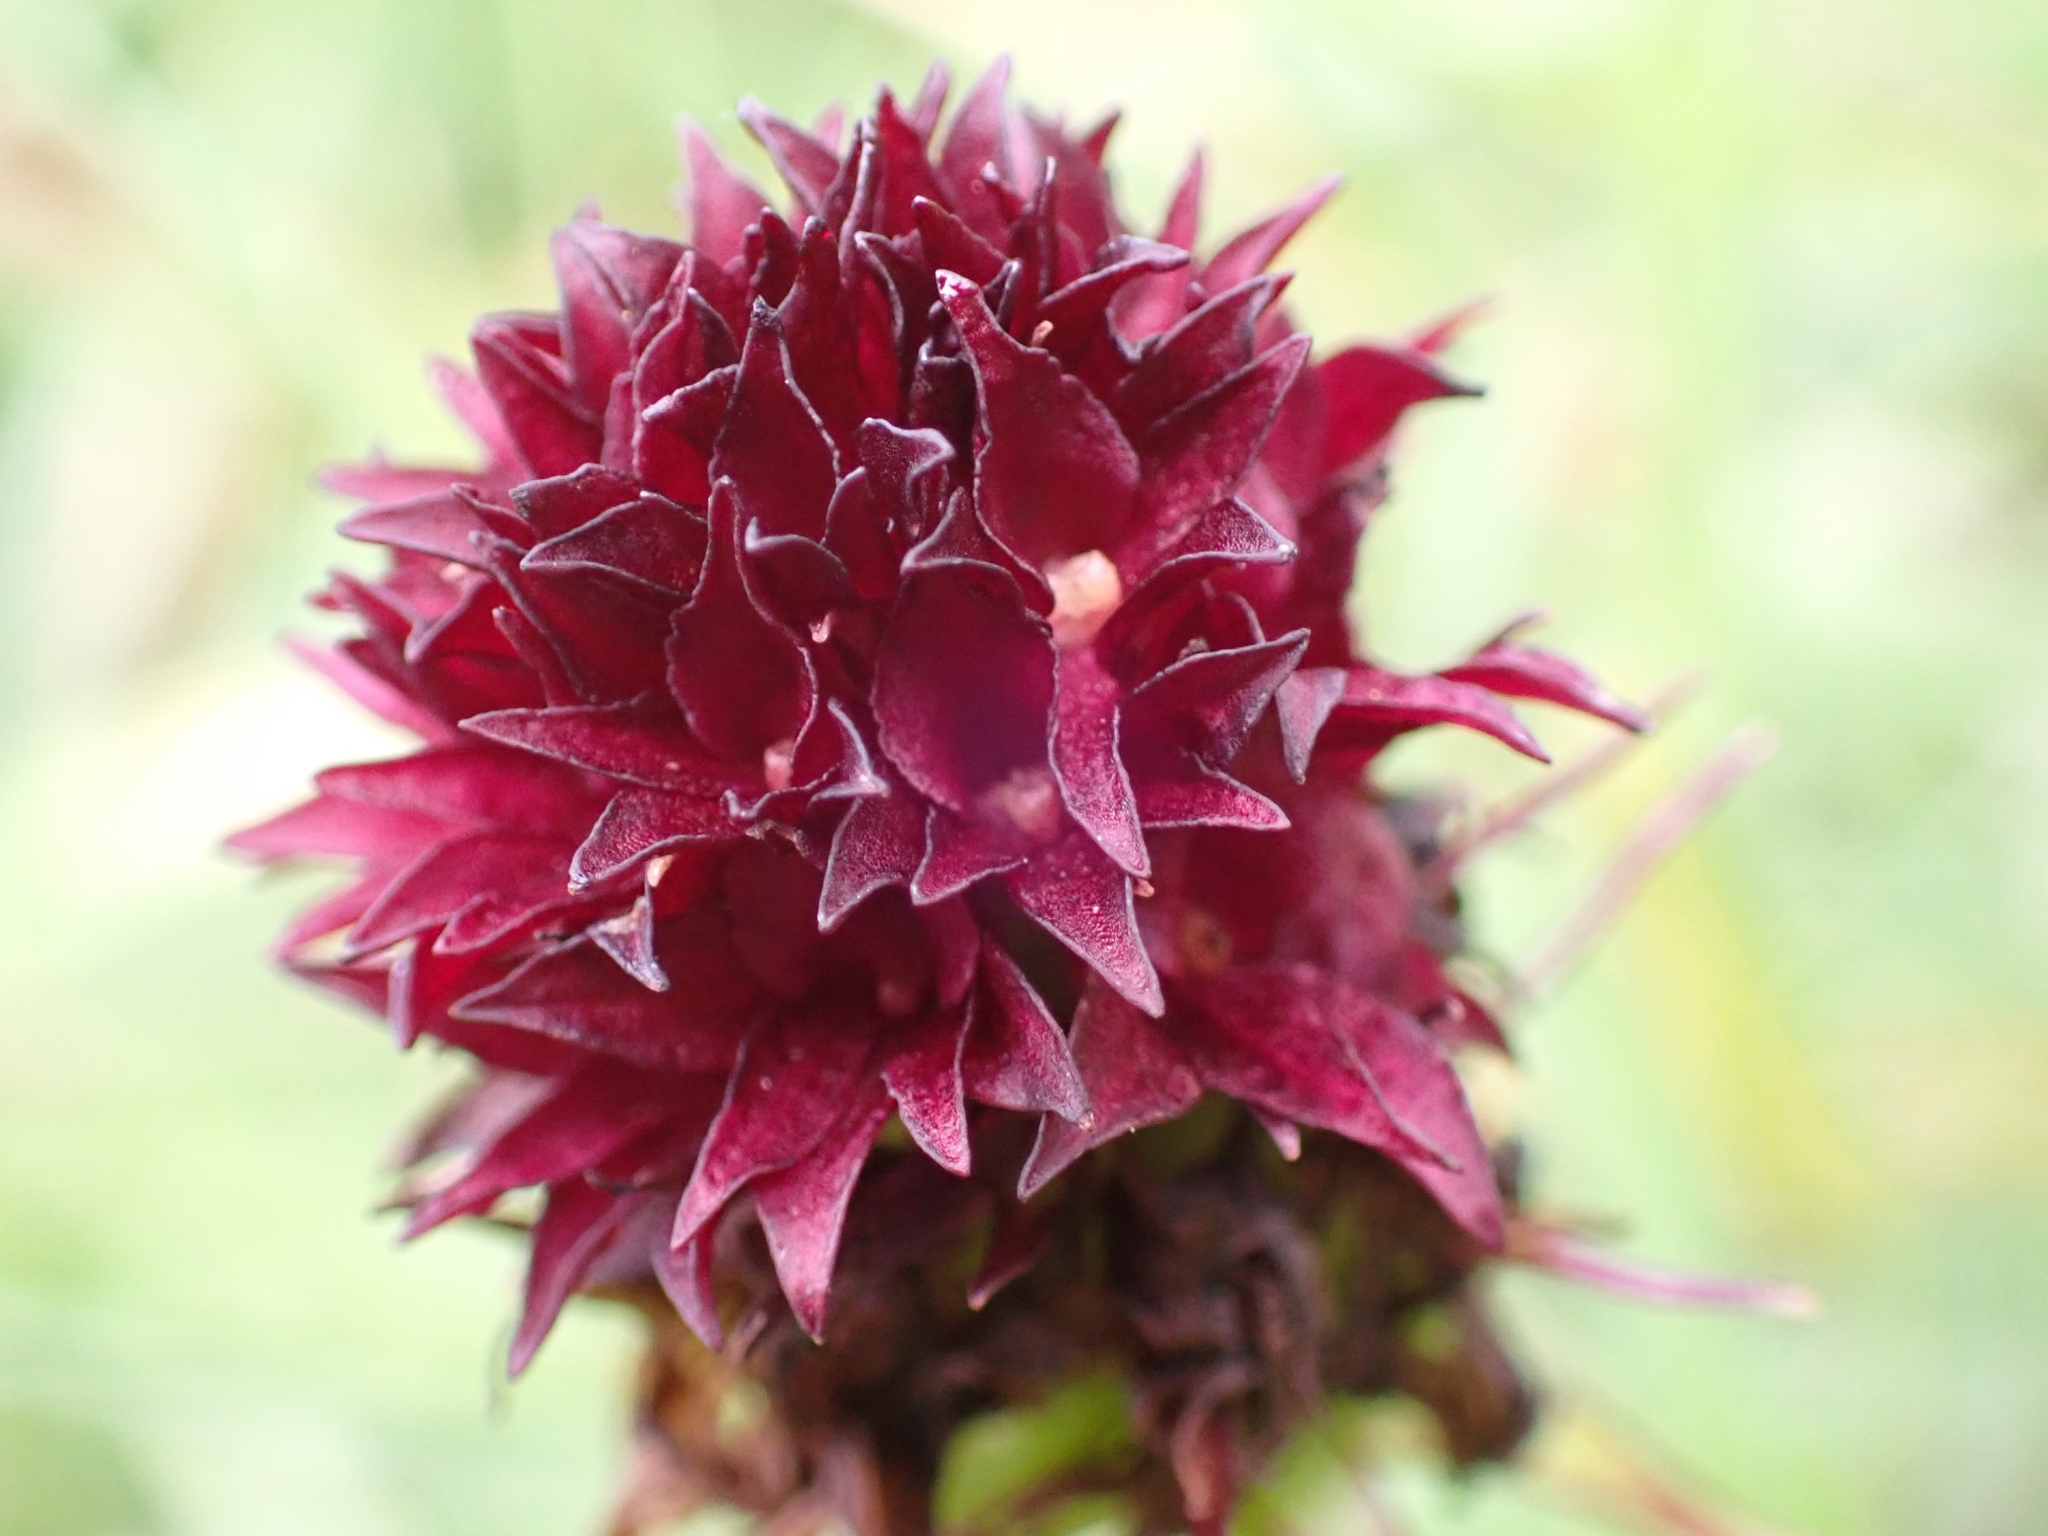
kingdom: Plantae
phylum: Tracheophyta
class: Liliopsida
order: Asparagales
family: Orchidaceae
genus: Gymnadenia
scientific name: Gymnadenia rhellicani
